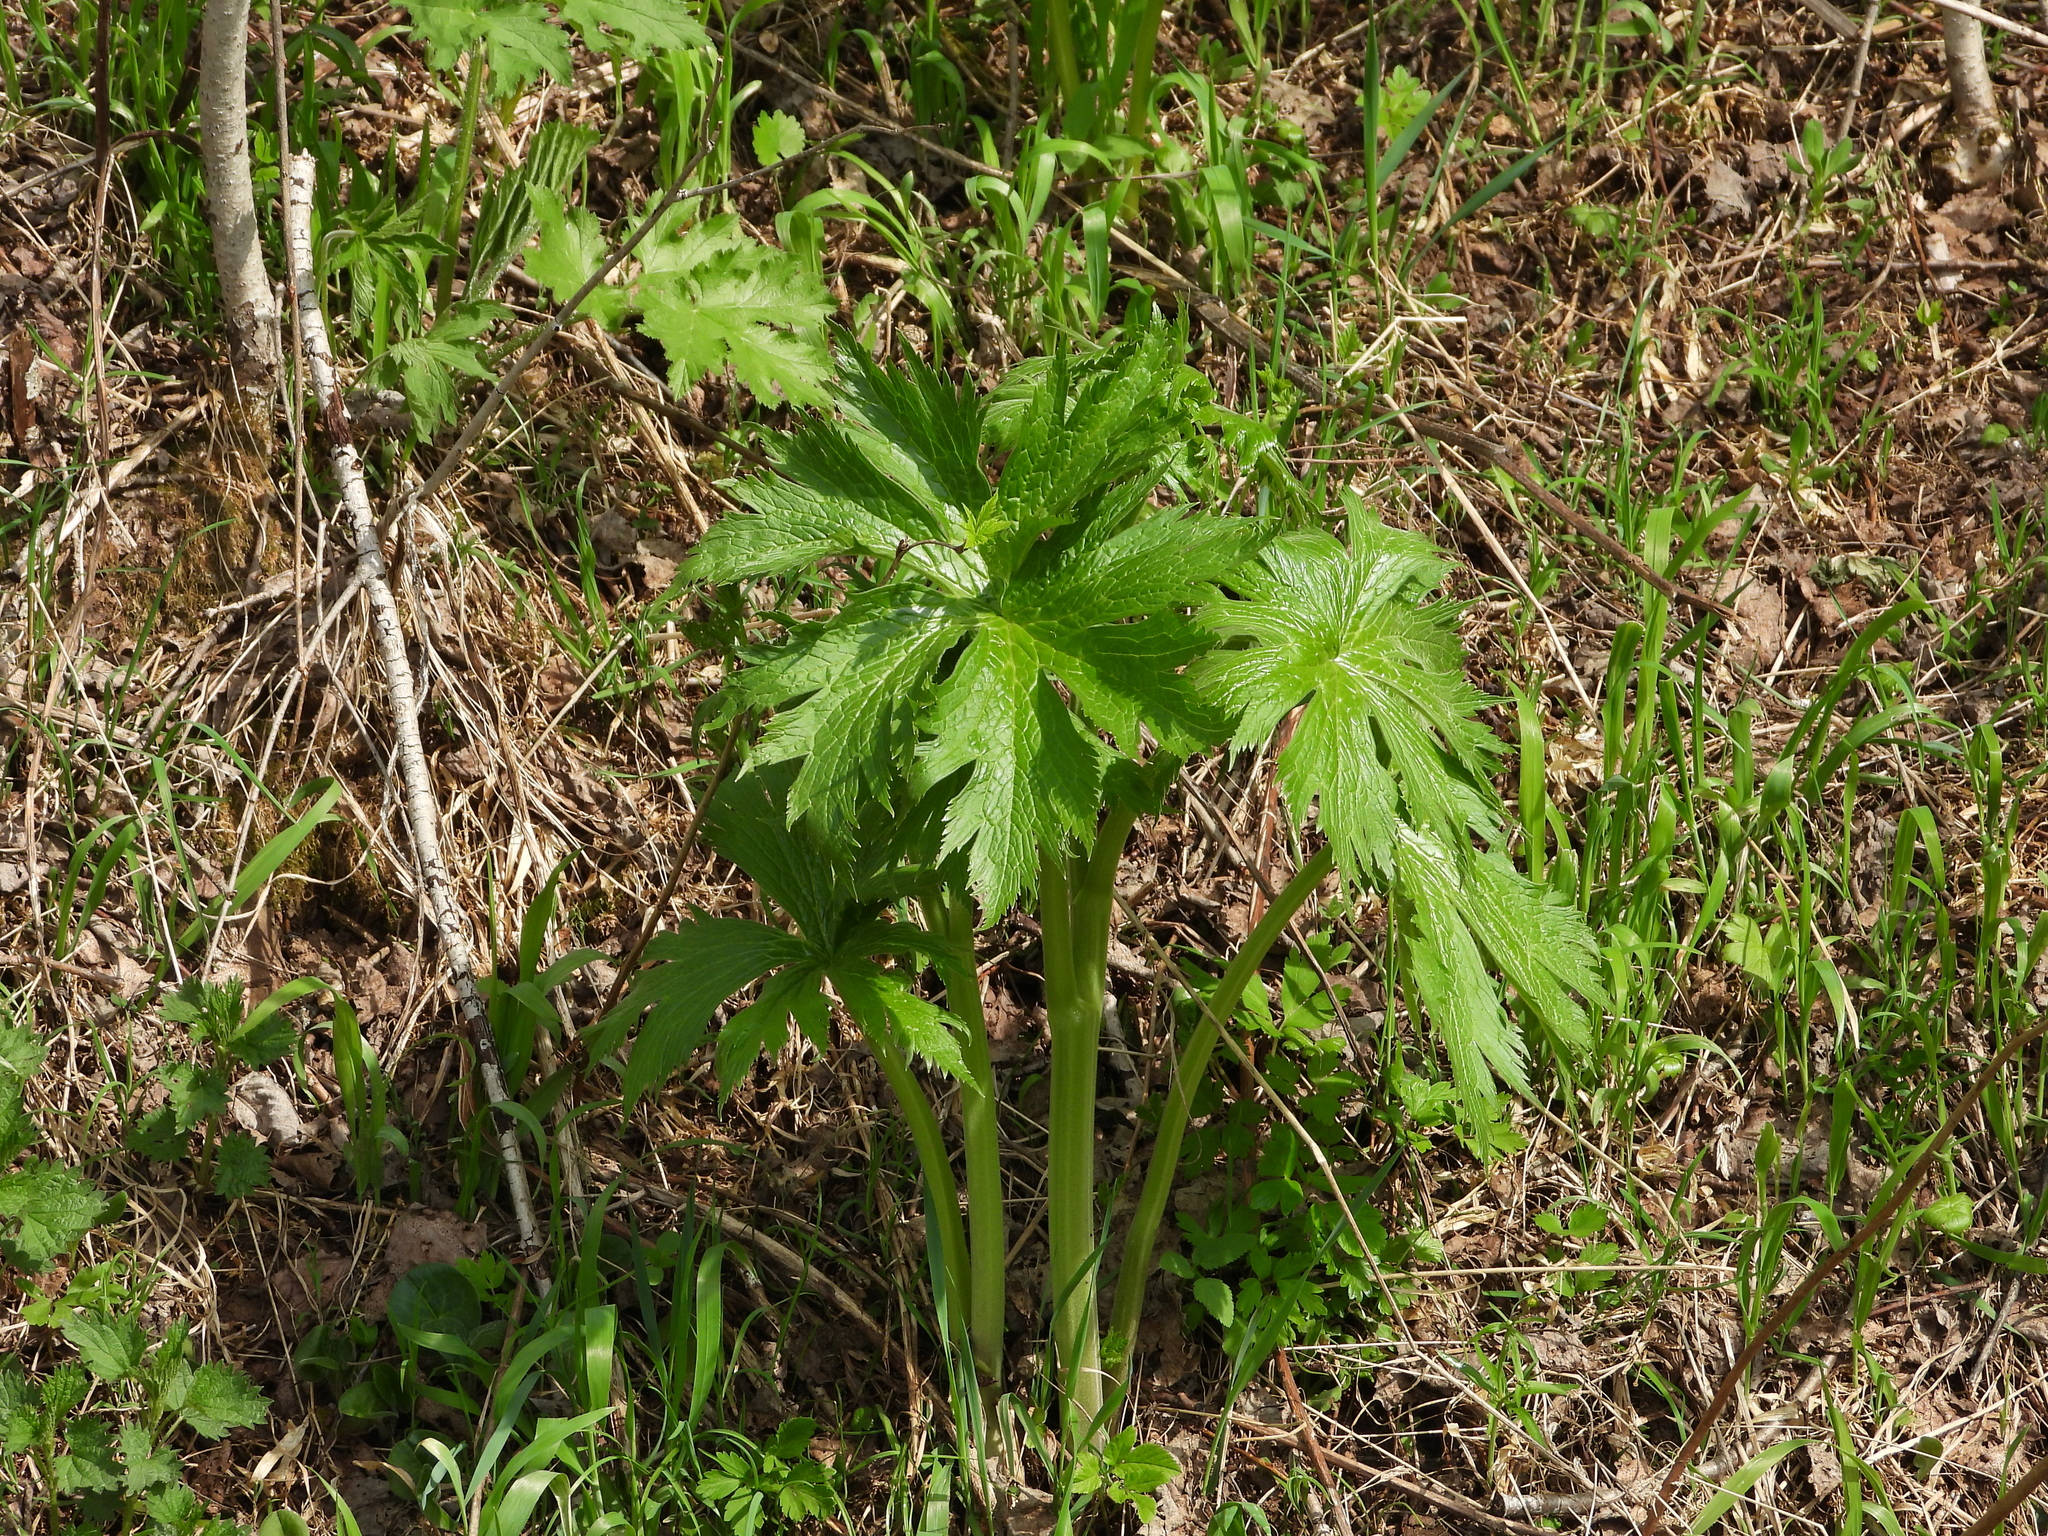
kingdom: Plantae
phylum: Tracheophyta
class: Magnoliopsida
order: Ranunculales
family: Ranunculaceae
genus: Aconitum
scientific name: Aconitum septentrionale
